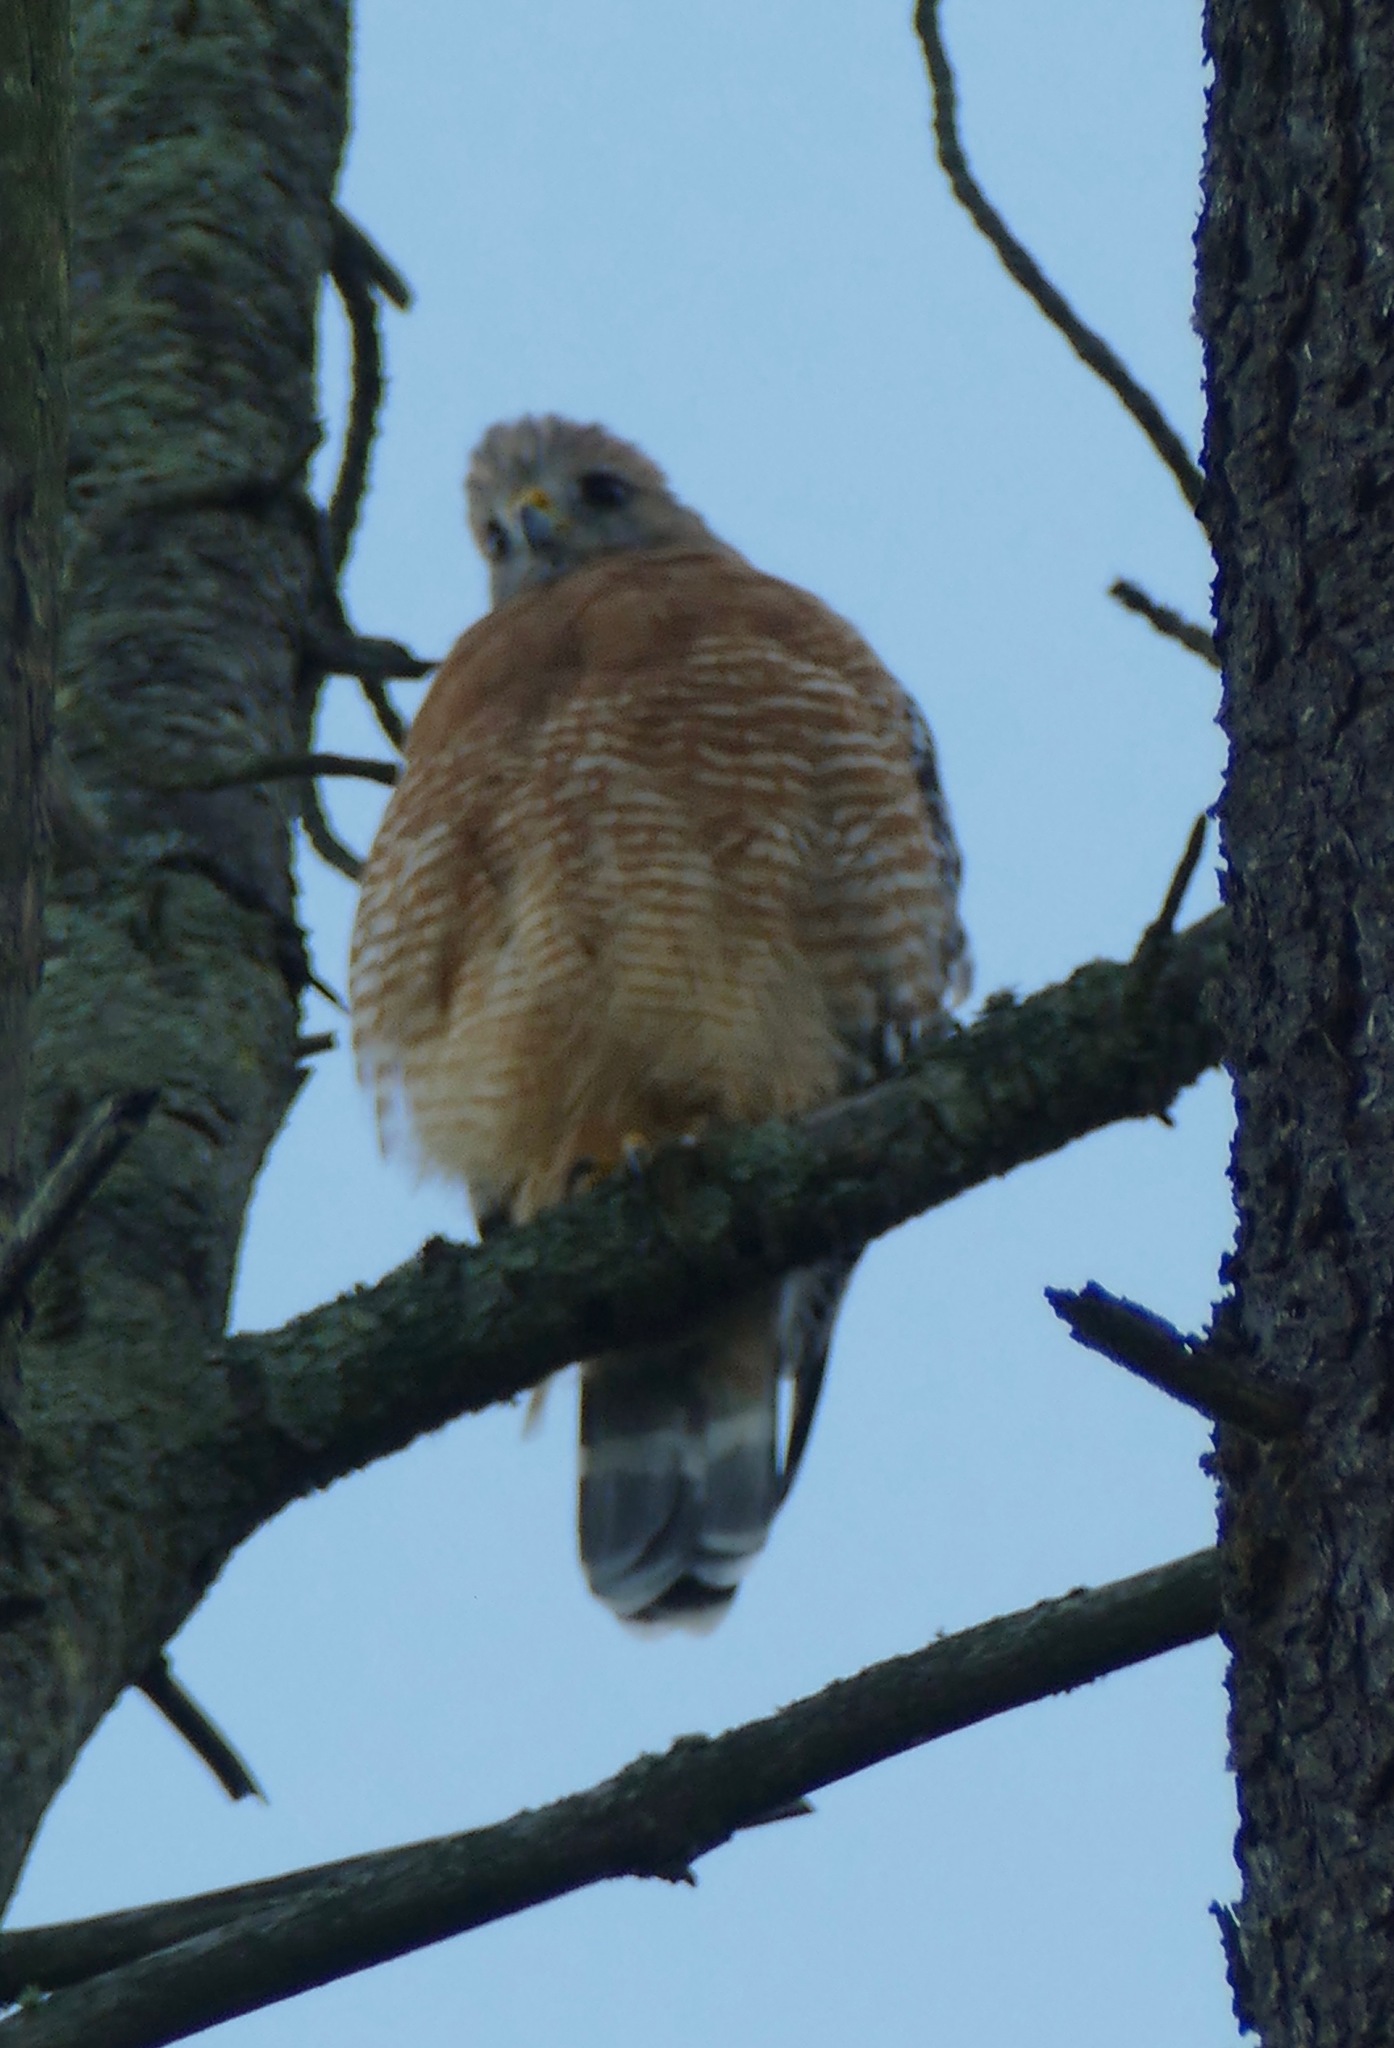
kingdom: Animalia
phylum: Chordata
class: Aves
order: Accipitriformes
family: Accipitridae
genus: Buteo
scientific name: Buteo lineatus
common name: Red-shouldered hawk
